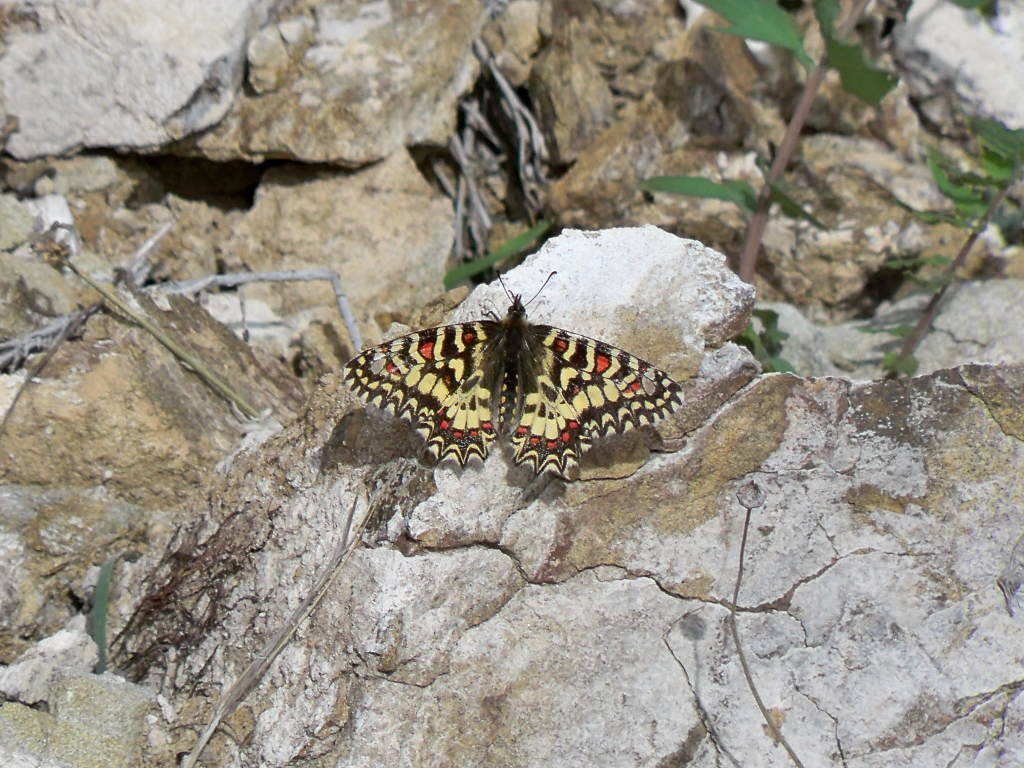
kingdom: Animalia
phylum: Arthropoda
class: Insecta
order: Lepidoptera
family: Papilionidae
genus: Zerynthia
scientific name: Zerynthia rumina
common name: Spanish festoon
